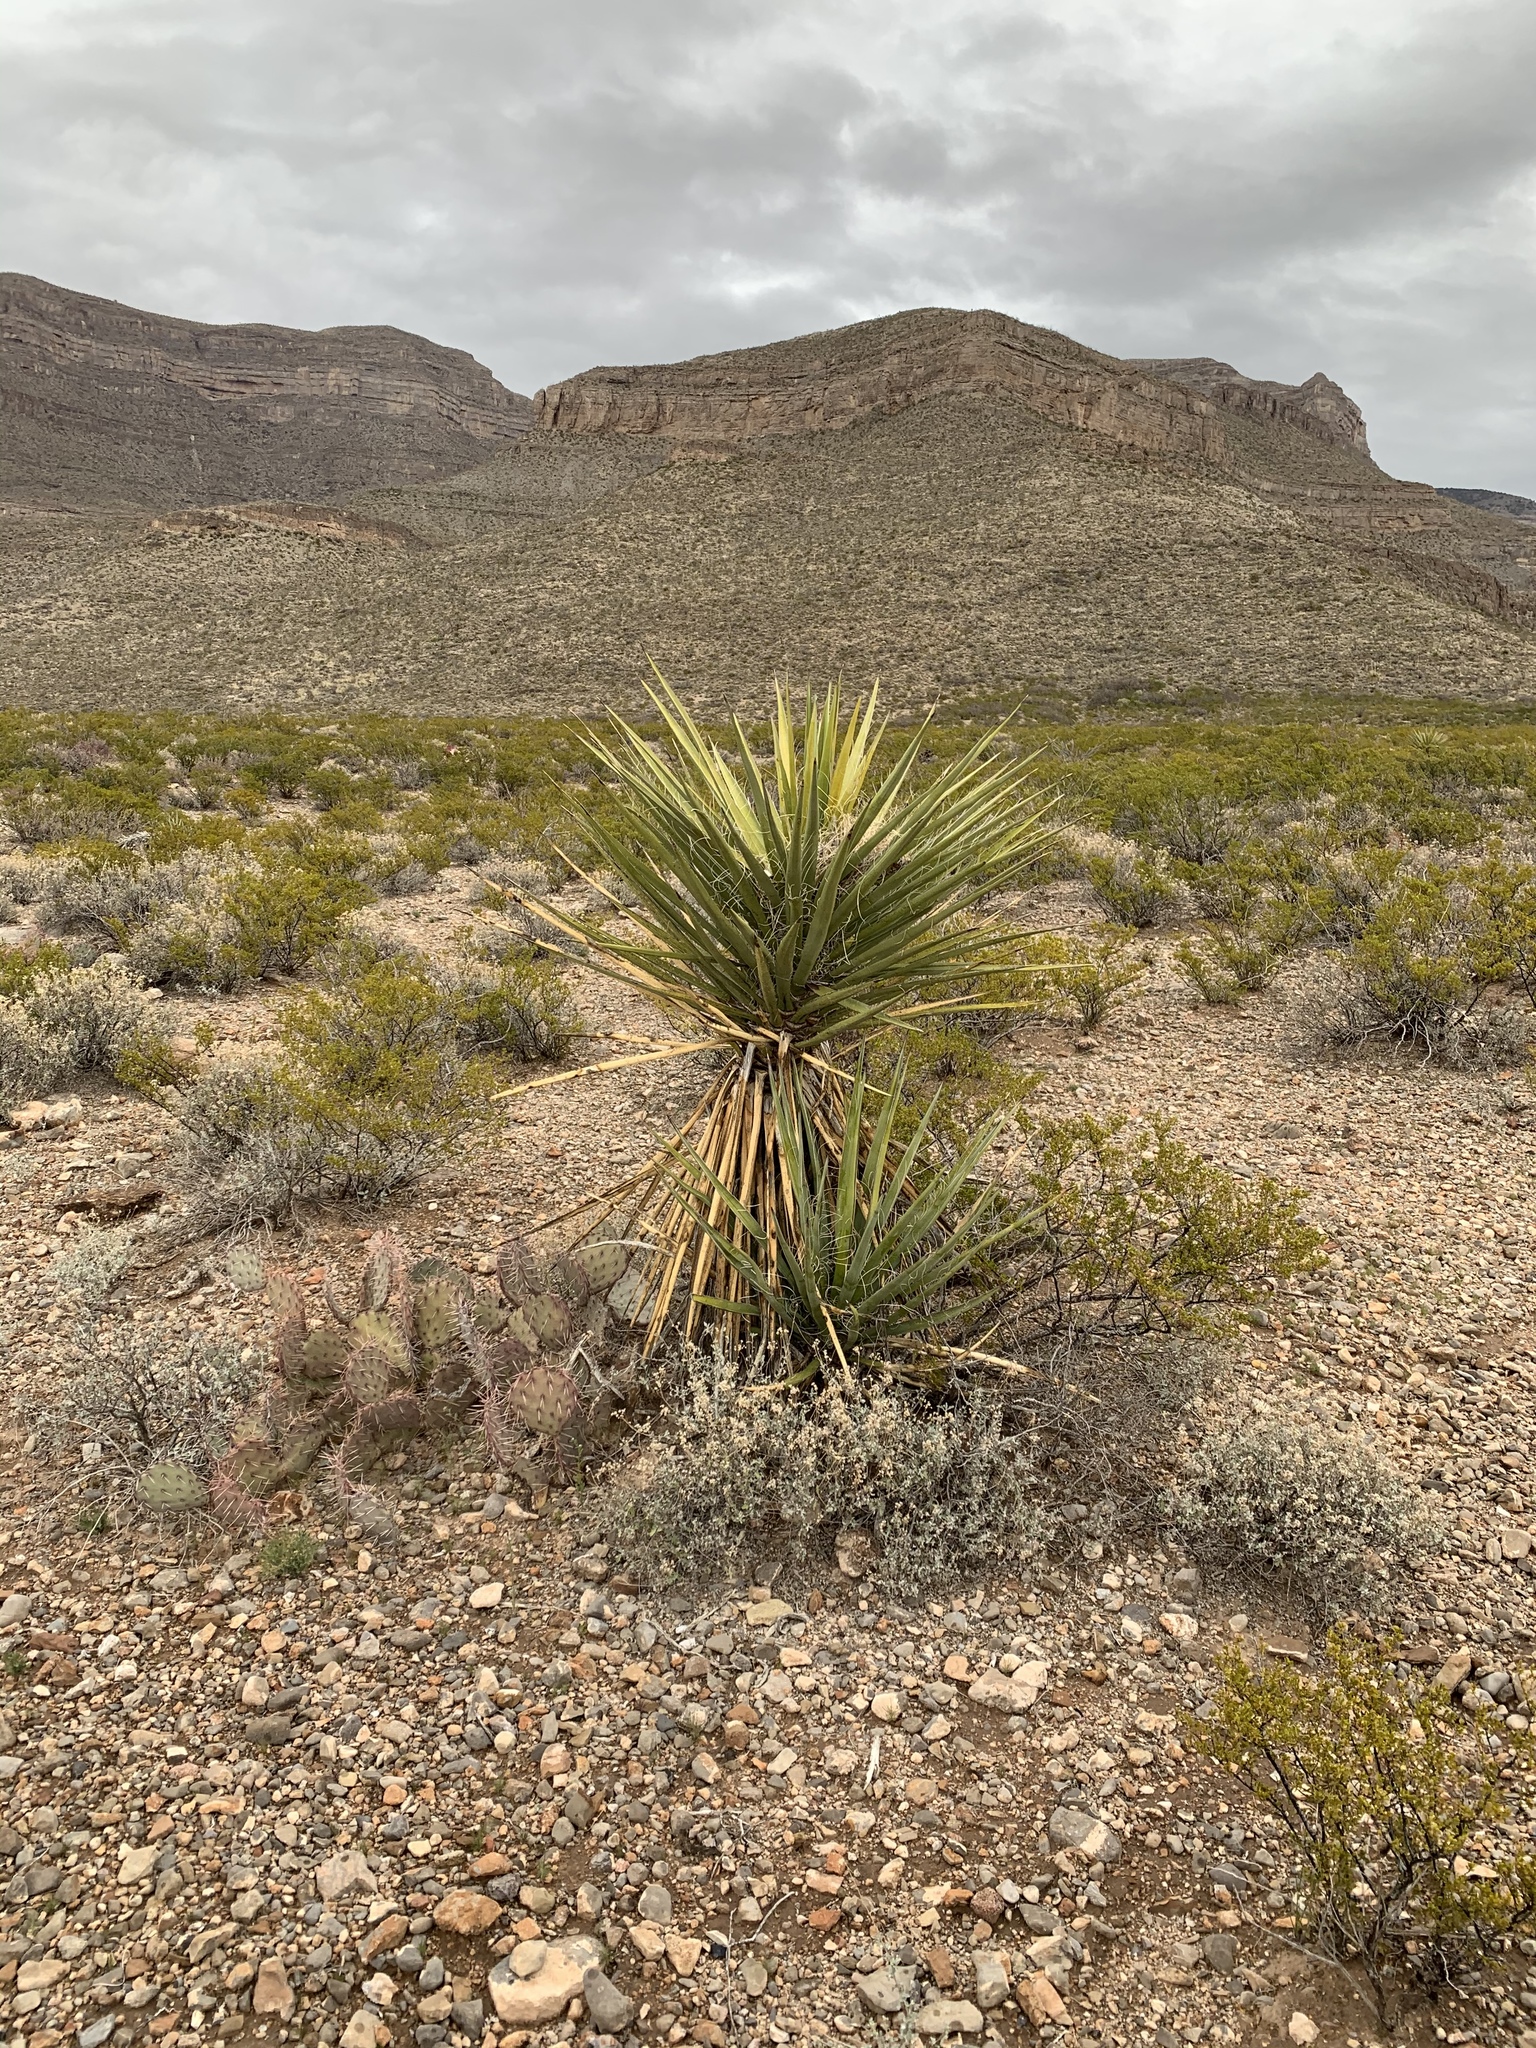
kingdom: Plantae
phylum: Tracheophyta
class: Liliopsida
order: Asparagales
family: Asparagaceae
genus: Yucca
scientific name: Yucca treculiana
